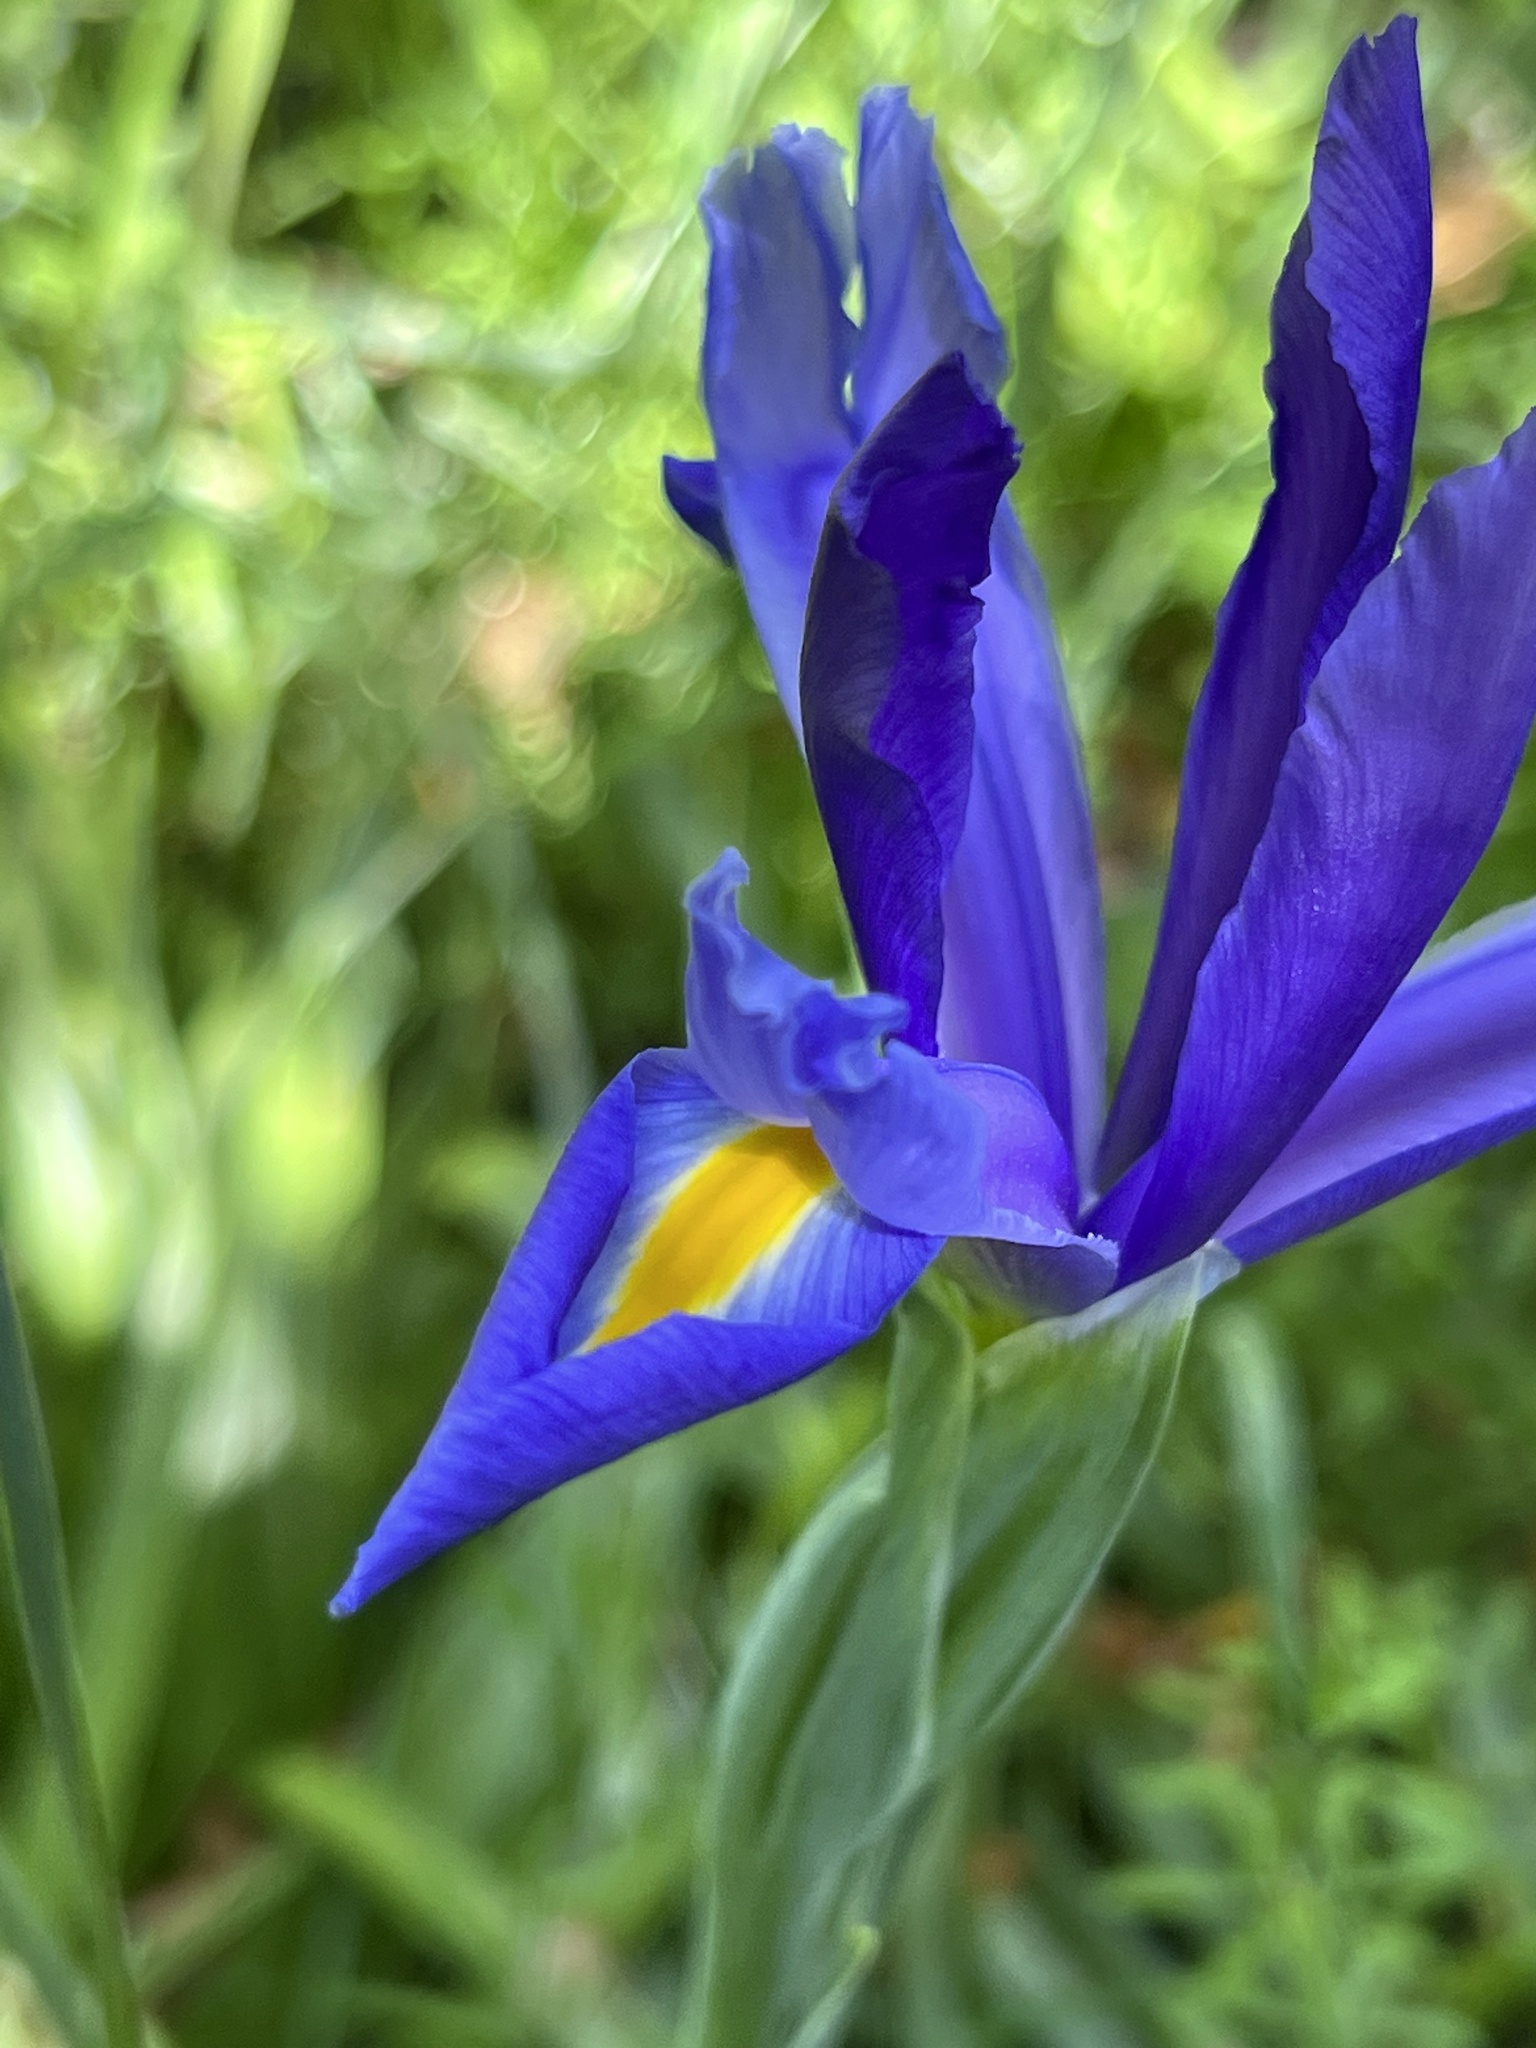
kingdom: Plantae
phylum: Tracheophyta
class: Liliopsida
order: Asparagales
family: Iridaceae
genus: Iris
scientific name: Iris hollandica
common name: Dutch iris
